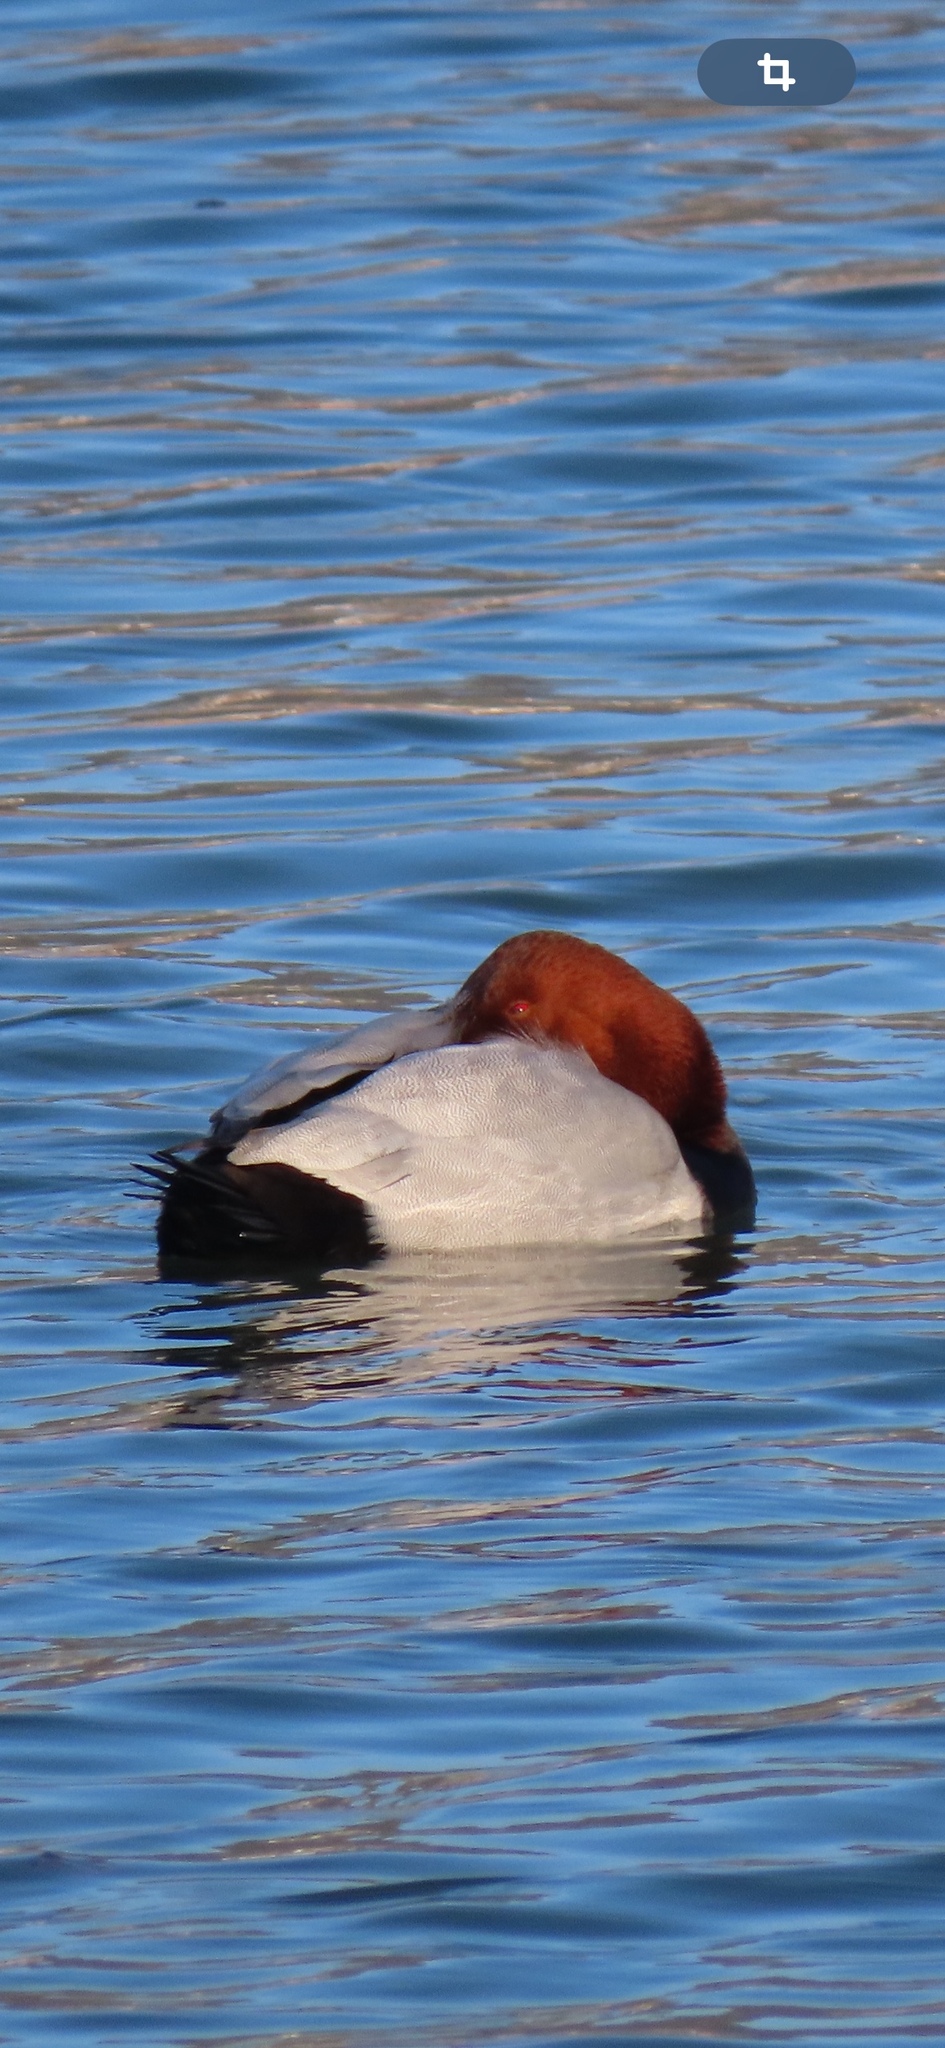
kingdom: Animalia
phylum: Chordata
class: Aves
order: Anseriformes
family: Anatidae
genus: Aythya
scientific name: Aythya ferina
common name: Common pochard
